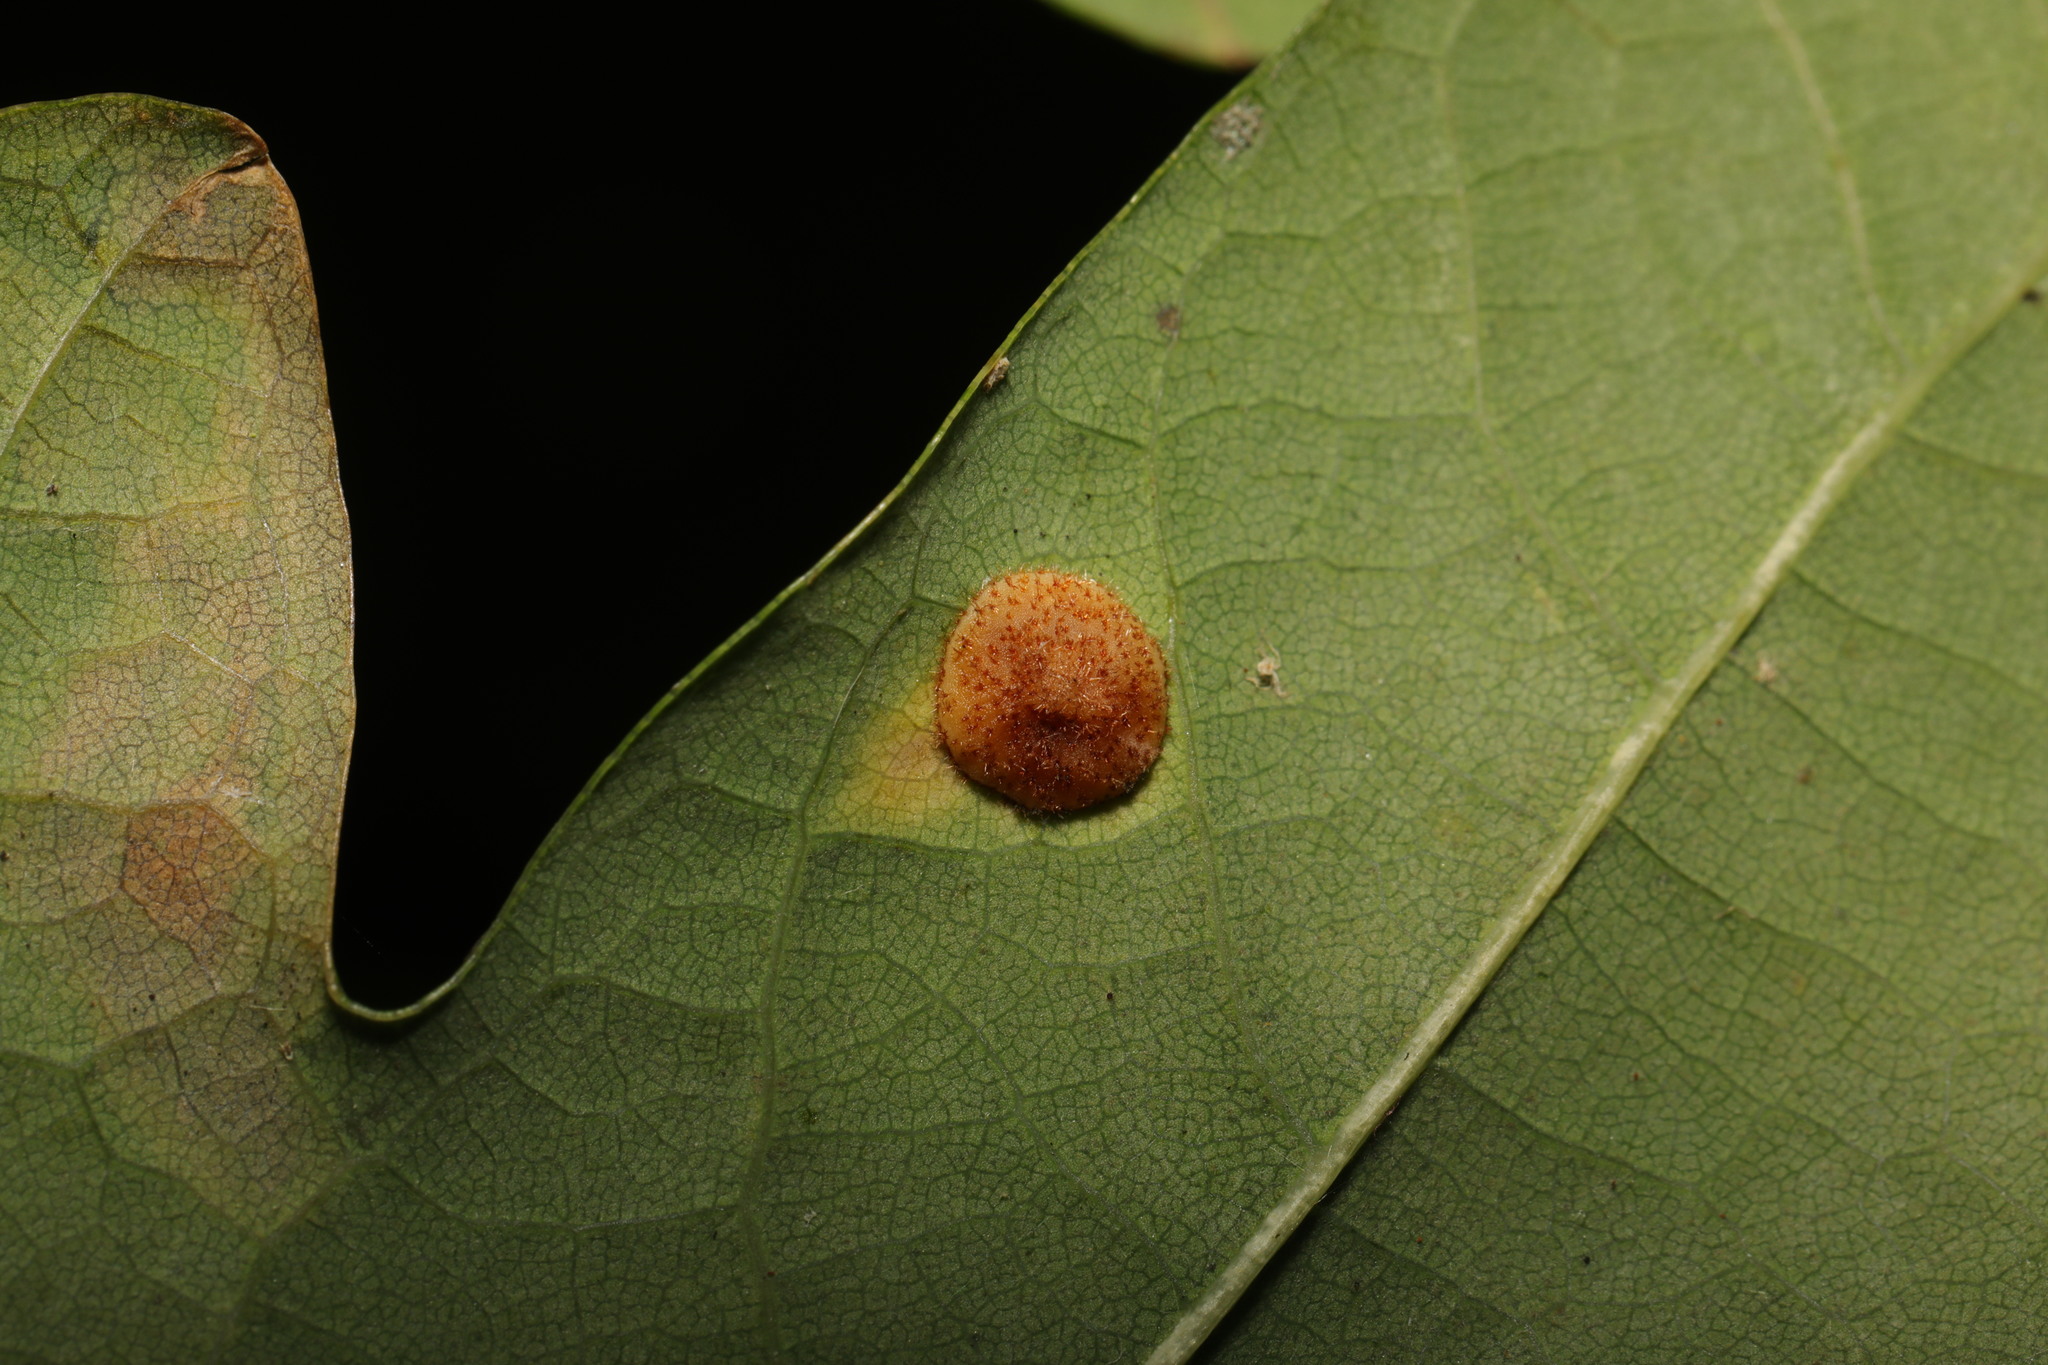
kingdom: Animalia
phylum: Arthropoda
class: Insecta
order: Hymenoptera
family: Cynipidae
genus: Neuroterus
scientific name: Neuroterus quercusbaccarum
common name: Common spangle gall
